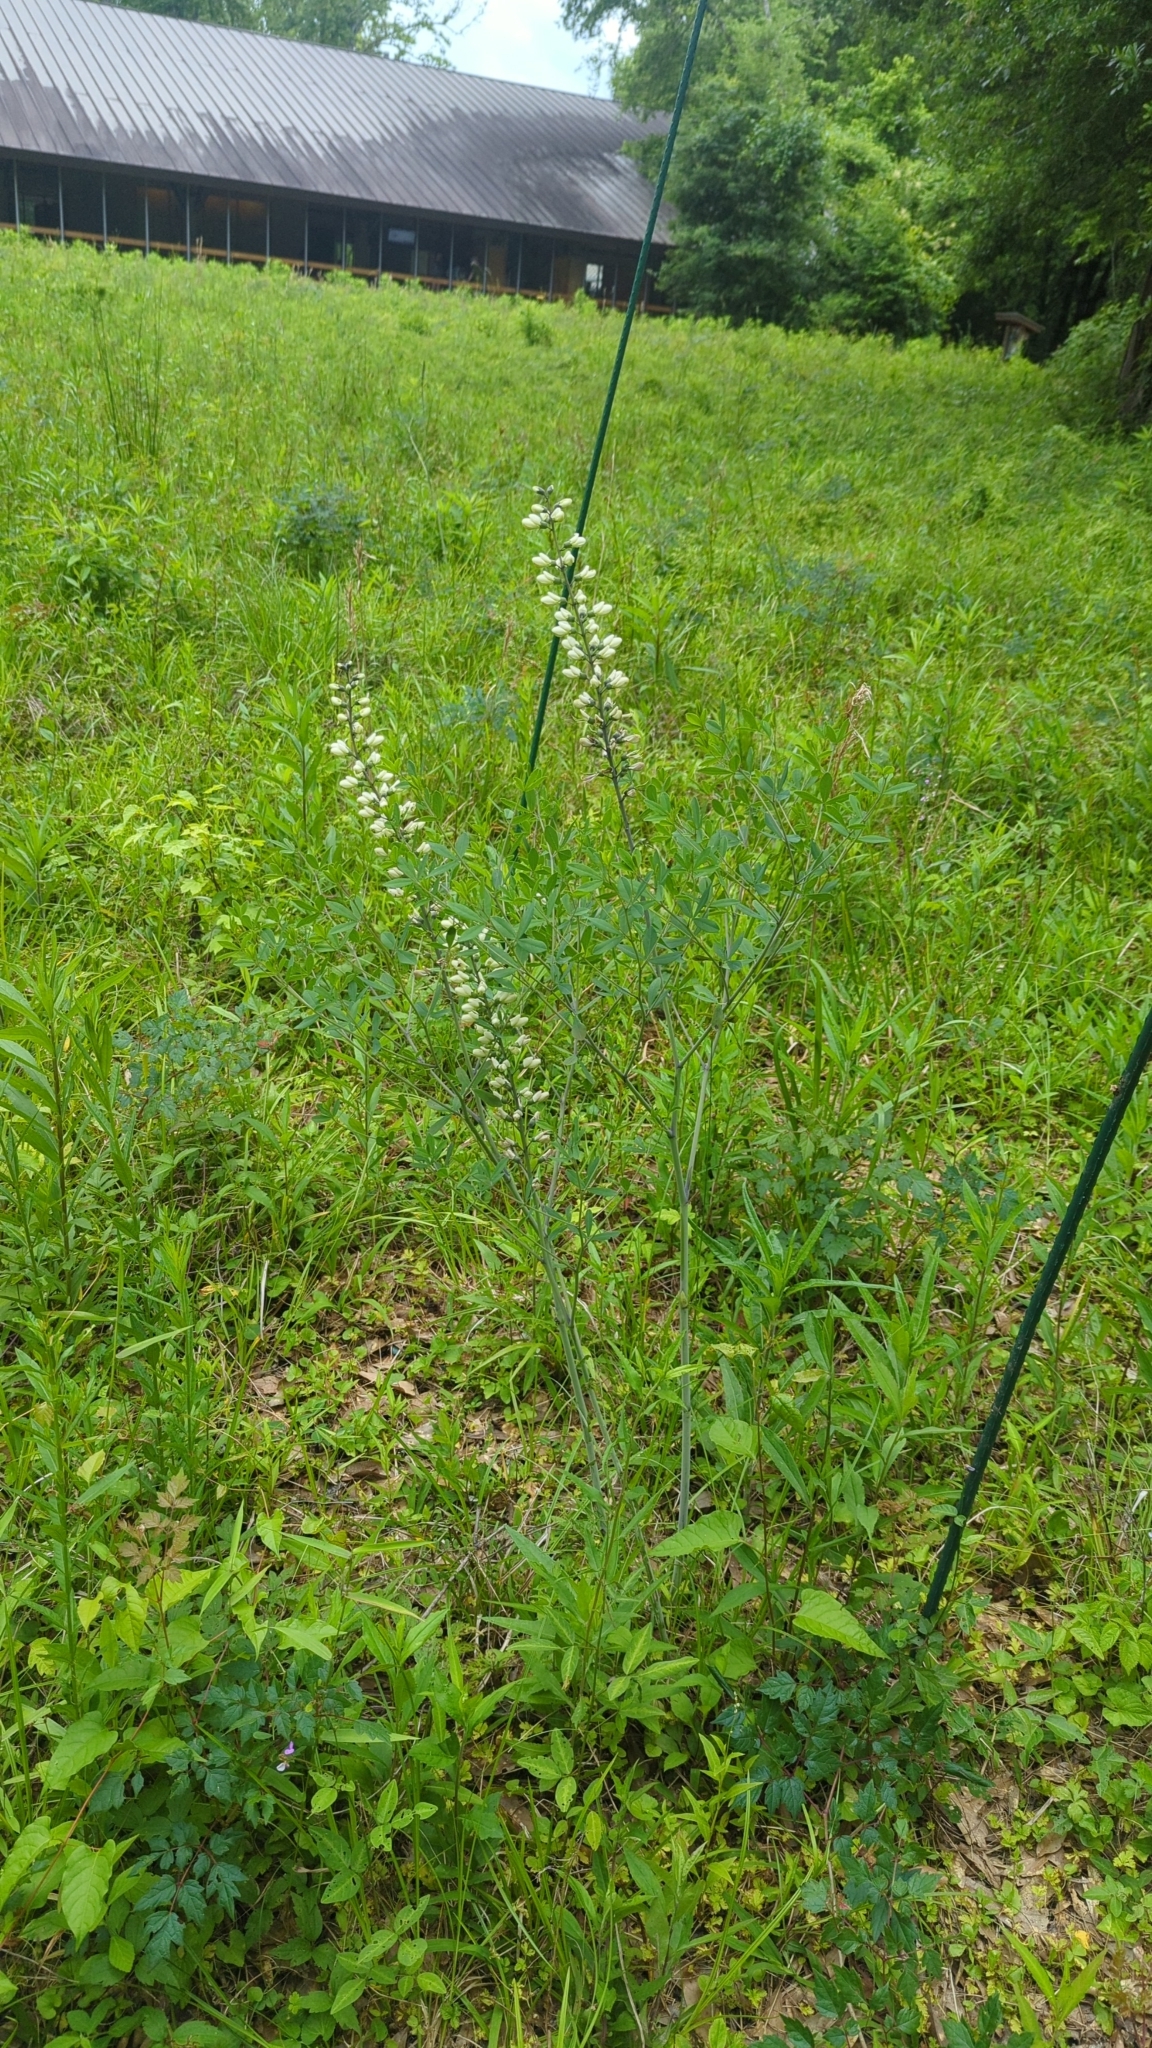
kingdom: Plantae
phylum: Tracheophyta
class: Magnoliopsida
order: Fabales
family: Fabaceae
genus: Baptisia
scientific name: Baptisia alba
